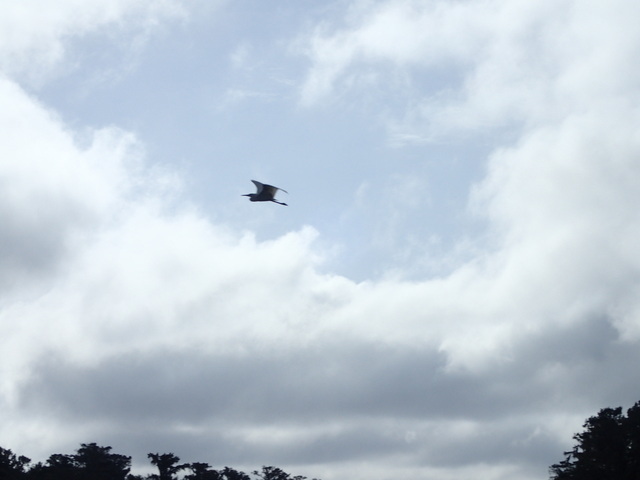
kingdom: Animalia
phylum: Chordata
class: Aves
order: Pelecaniformes
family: Ardeidae
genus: Ardea
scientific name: Ardea alba
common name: Great egret
